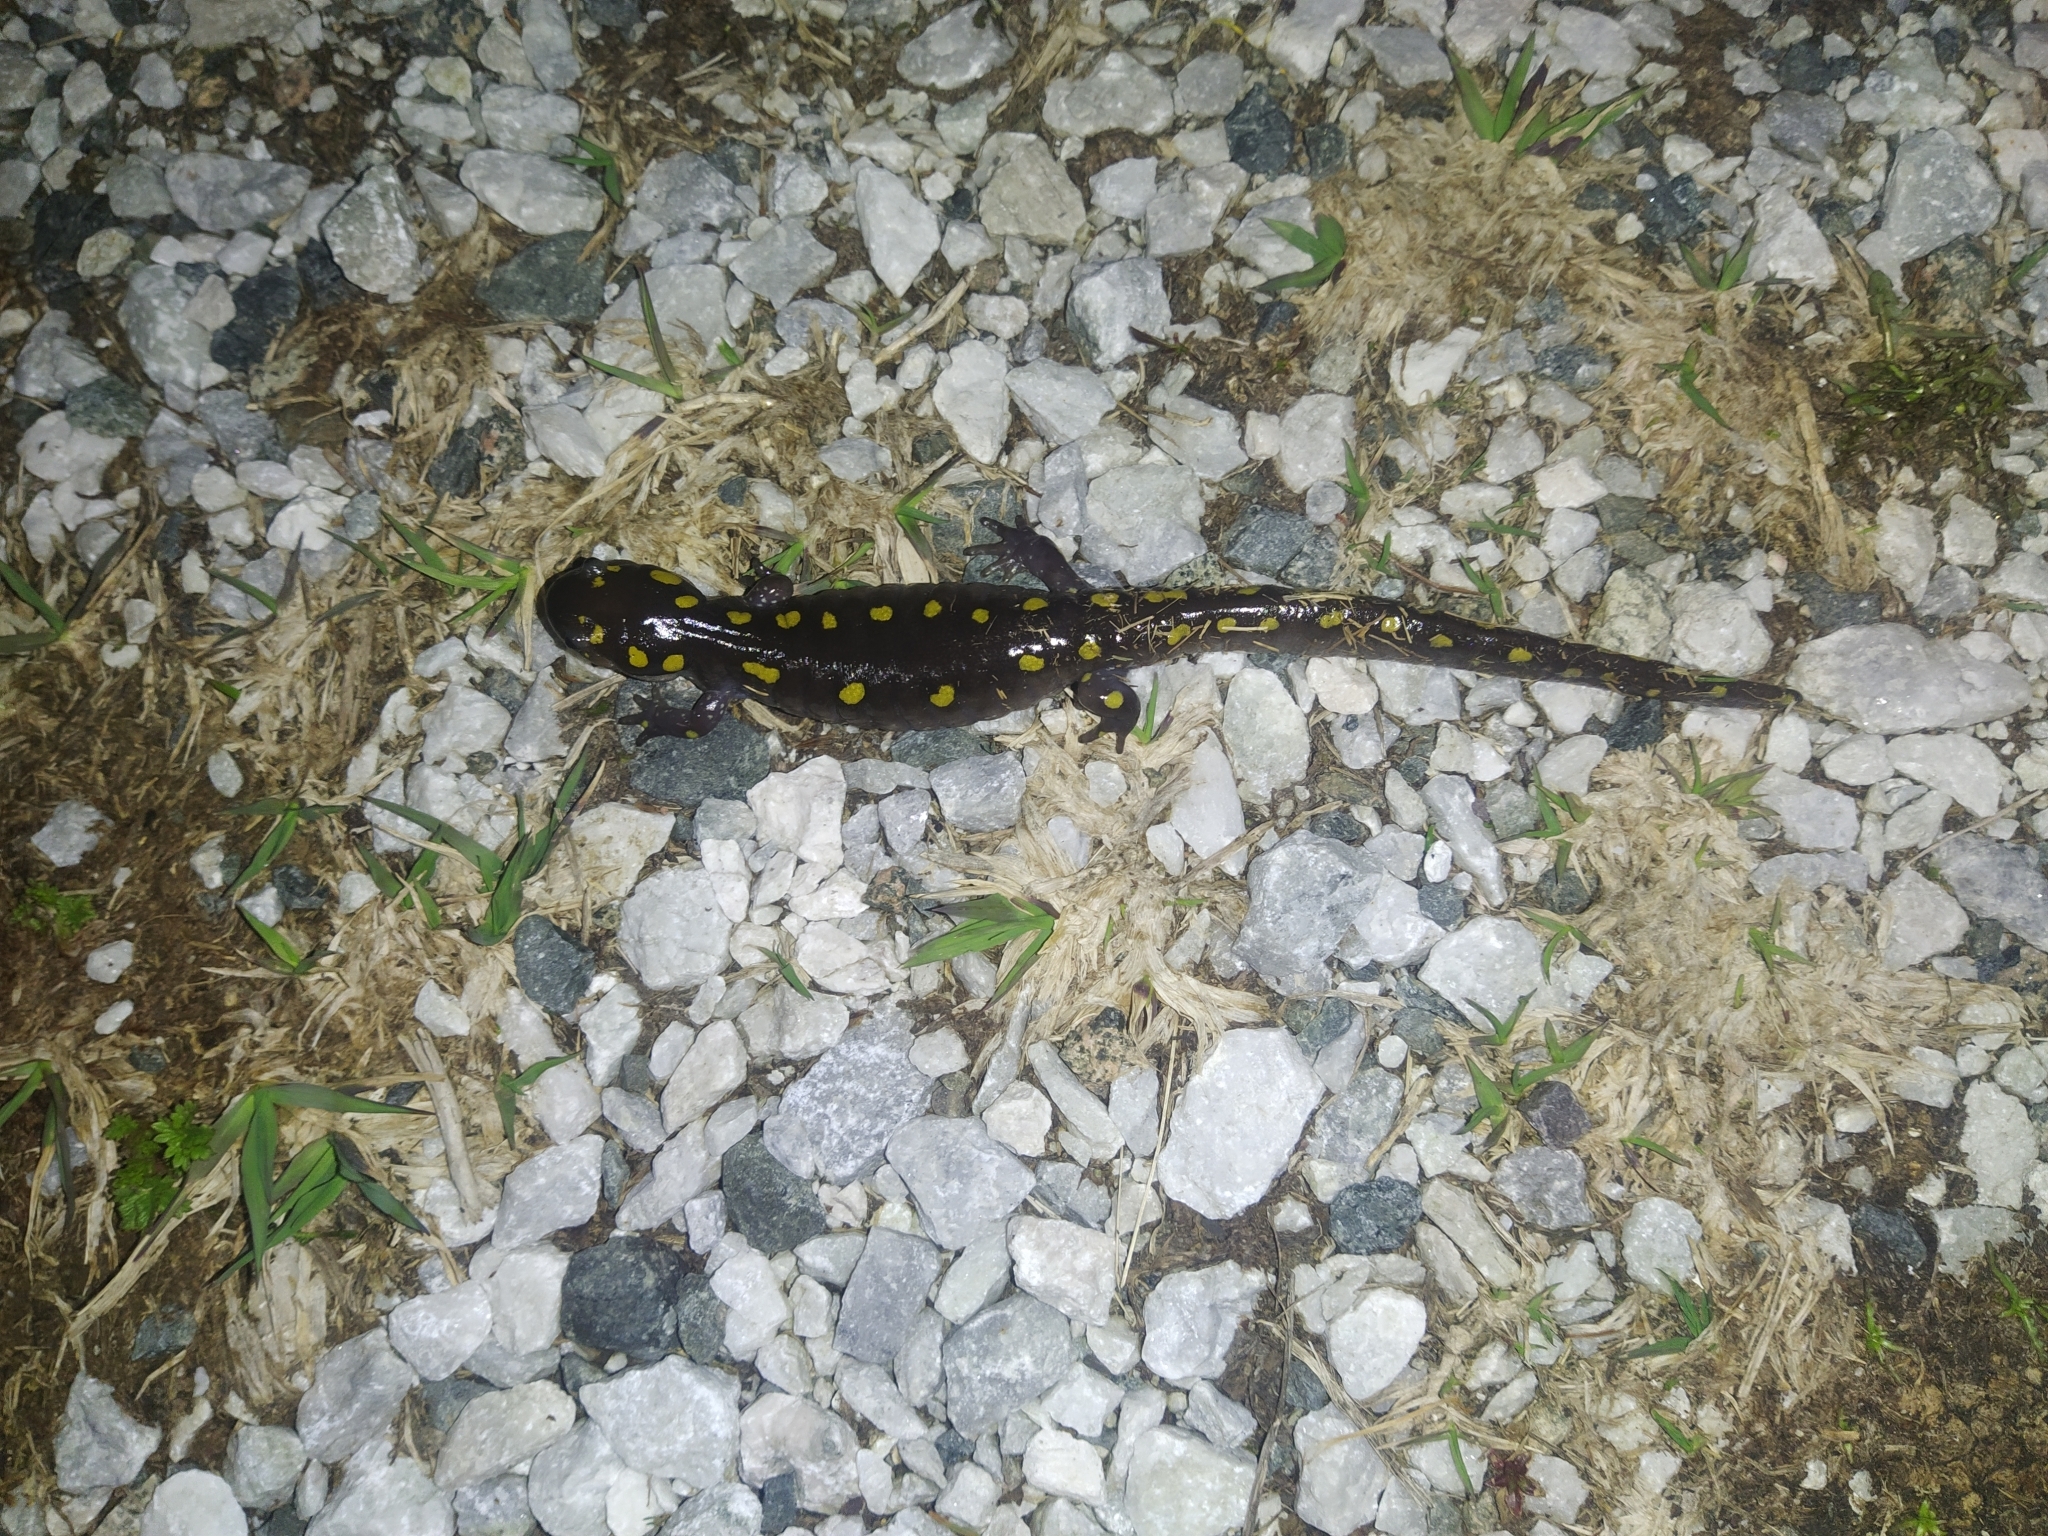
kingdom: Animalia
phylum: Chordata
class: Amphibia
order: Caudata
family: Ambystomatidae
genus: Ambystoma
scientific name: Ambystoma maculatum
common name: Spotted salamander
